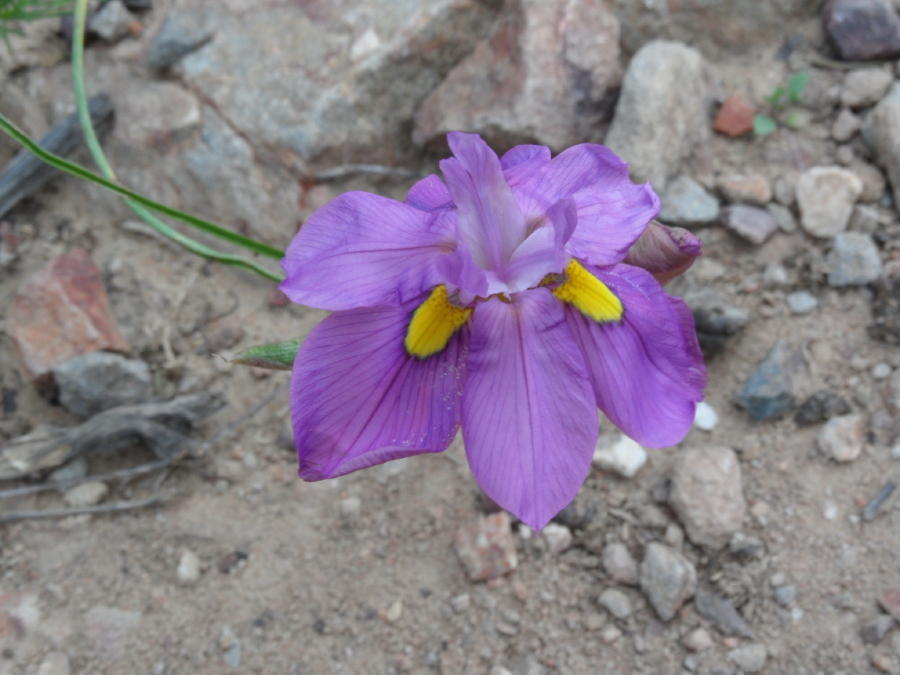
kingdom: Plantae
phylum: Tracheophyta
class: Liliopsida
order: Asparagales
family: Iridaceae
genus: Moraea
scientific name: Moraea bipartita
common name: Blue tulp
